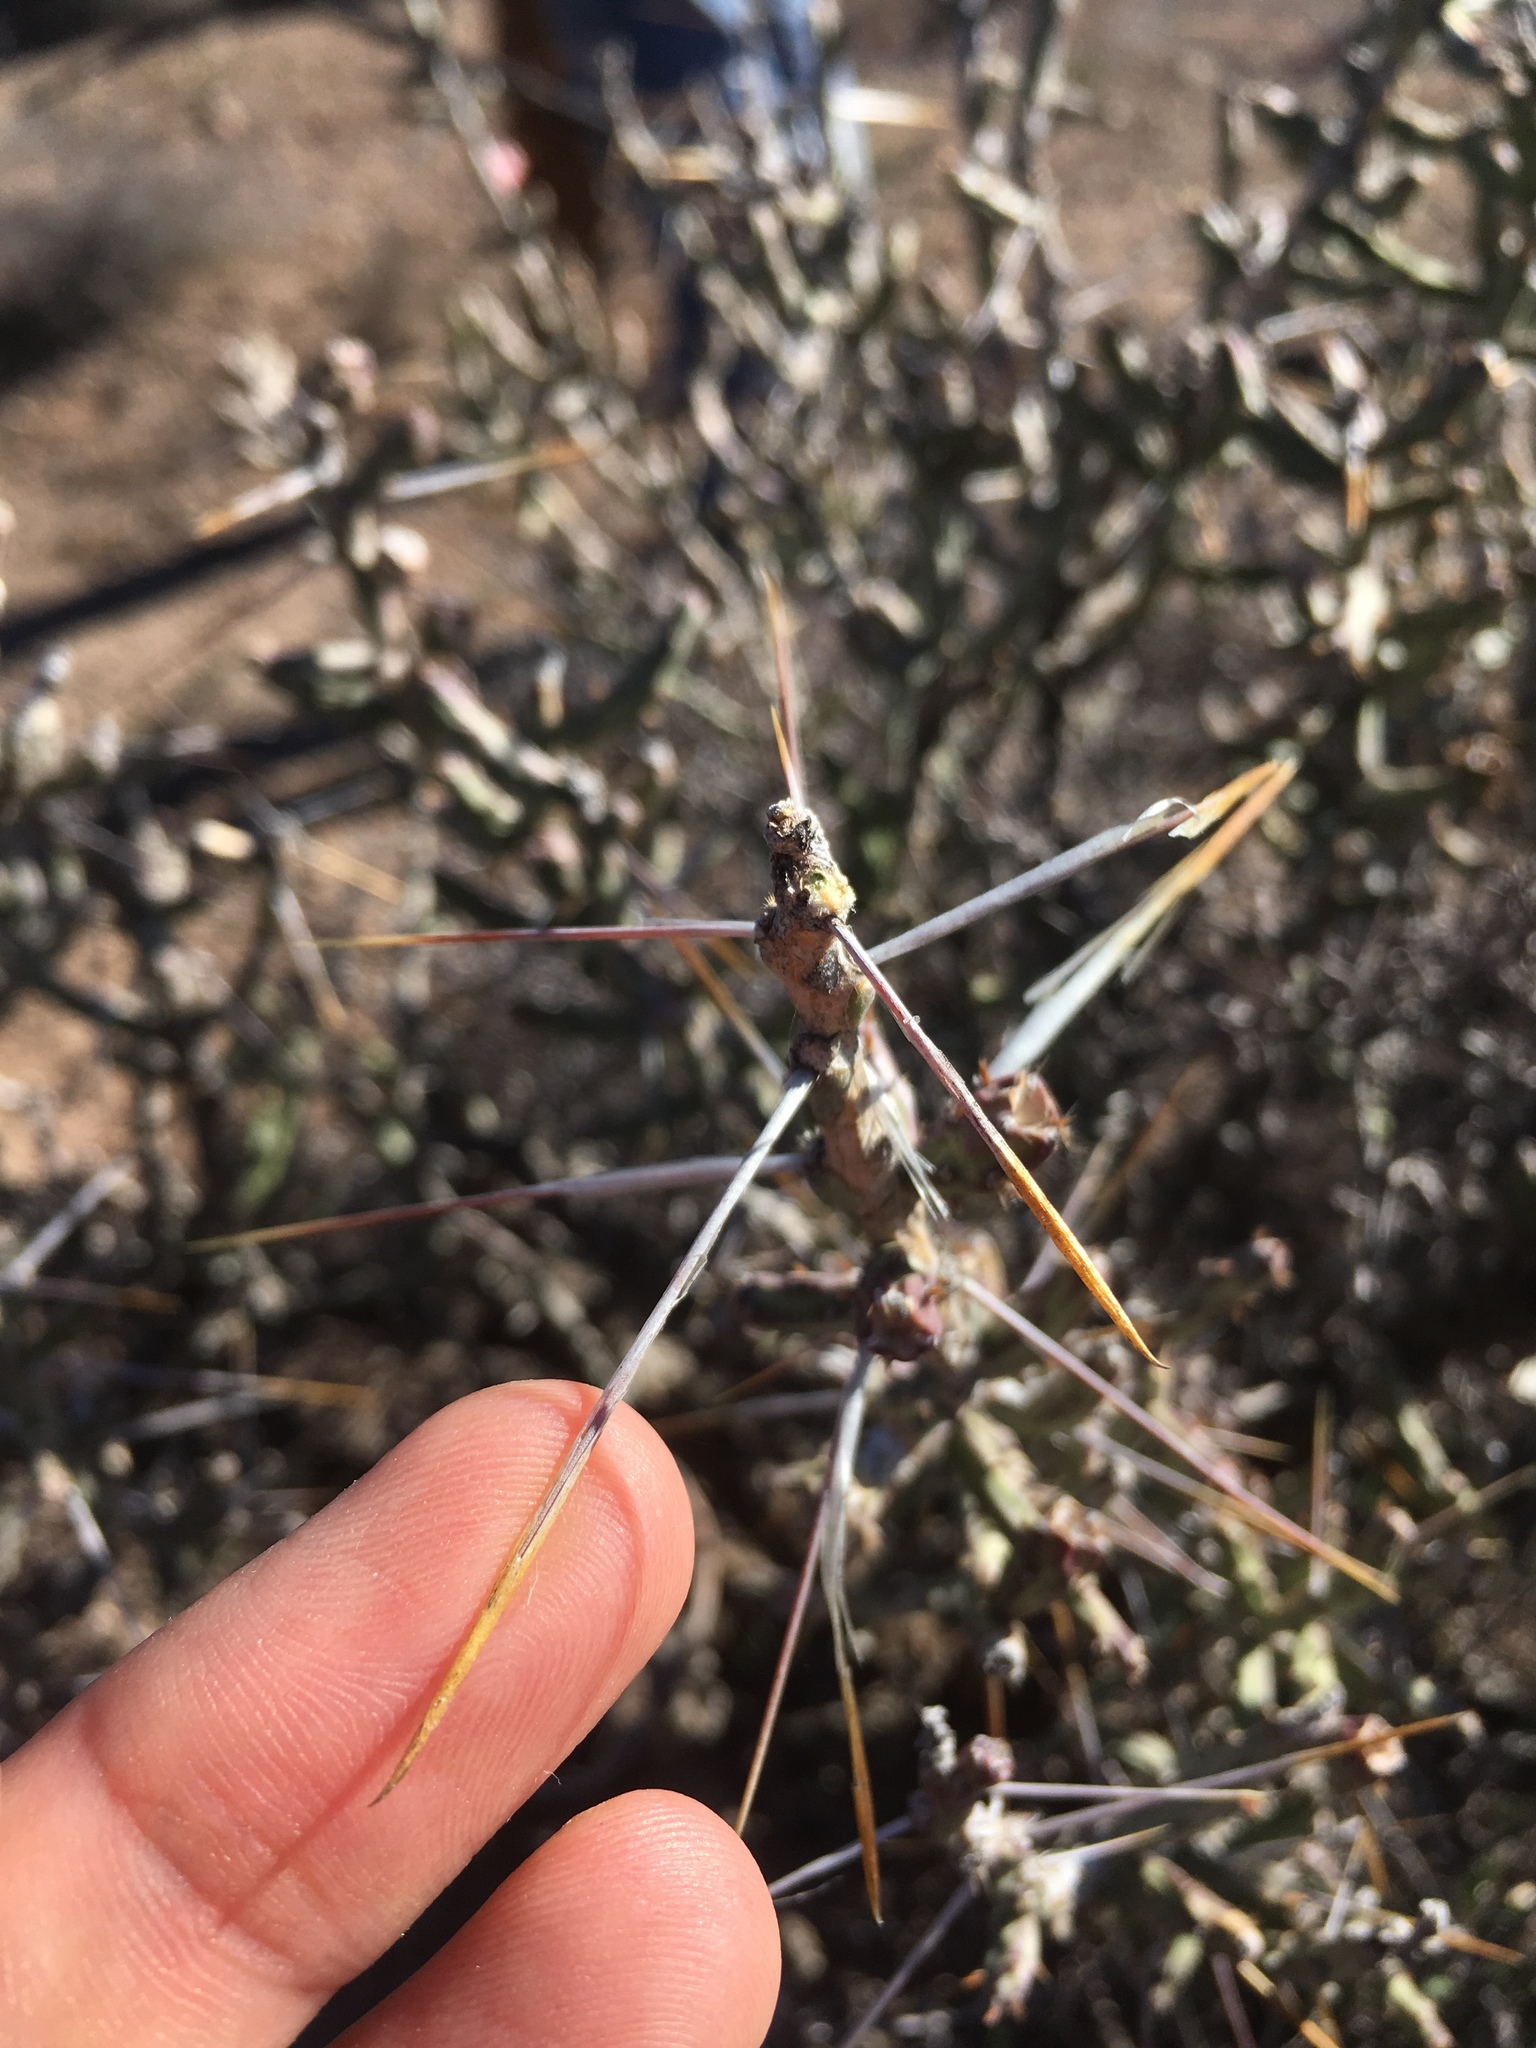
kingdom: Plantae
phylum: Tracheophyta
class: Magnoliopsida
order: Caryophyllales
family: Cactaceae
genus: Cylindropuntia
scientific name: Cylindropuntia leptocaulis
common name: Christmas cactus
